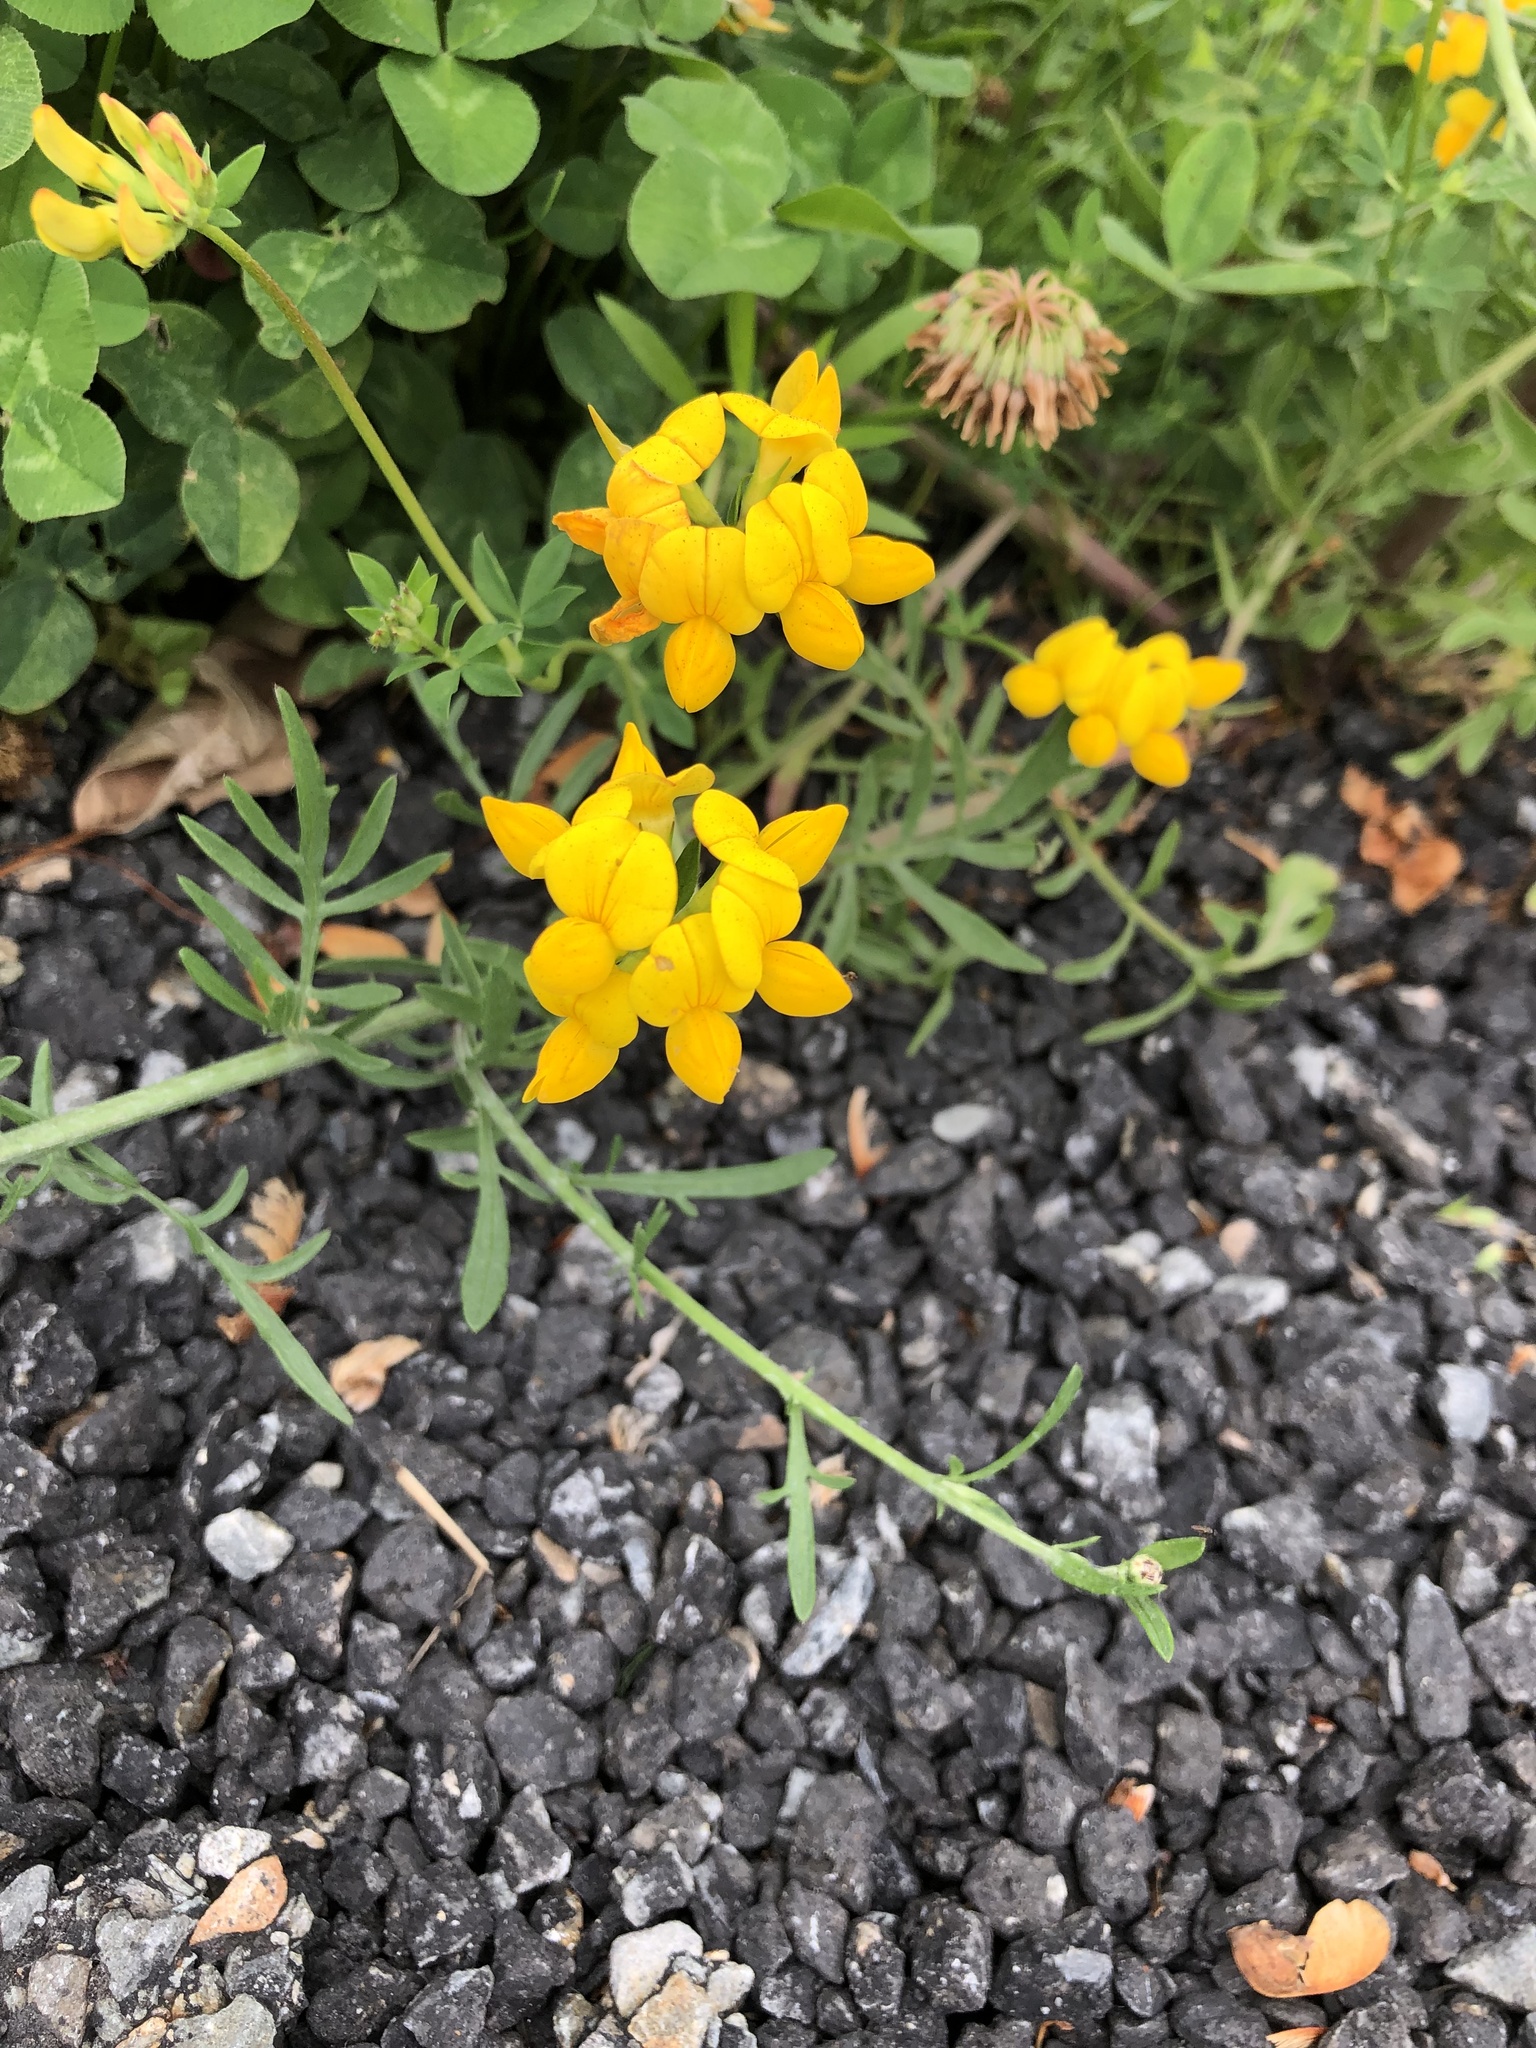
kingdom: Plantae
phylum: Tracheophyta
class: Magnoliopsida
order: Fabales
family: Fabaceae
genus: Lotus
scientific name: Lotus corniculatus
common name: Common bird's-foot-trefoil
